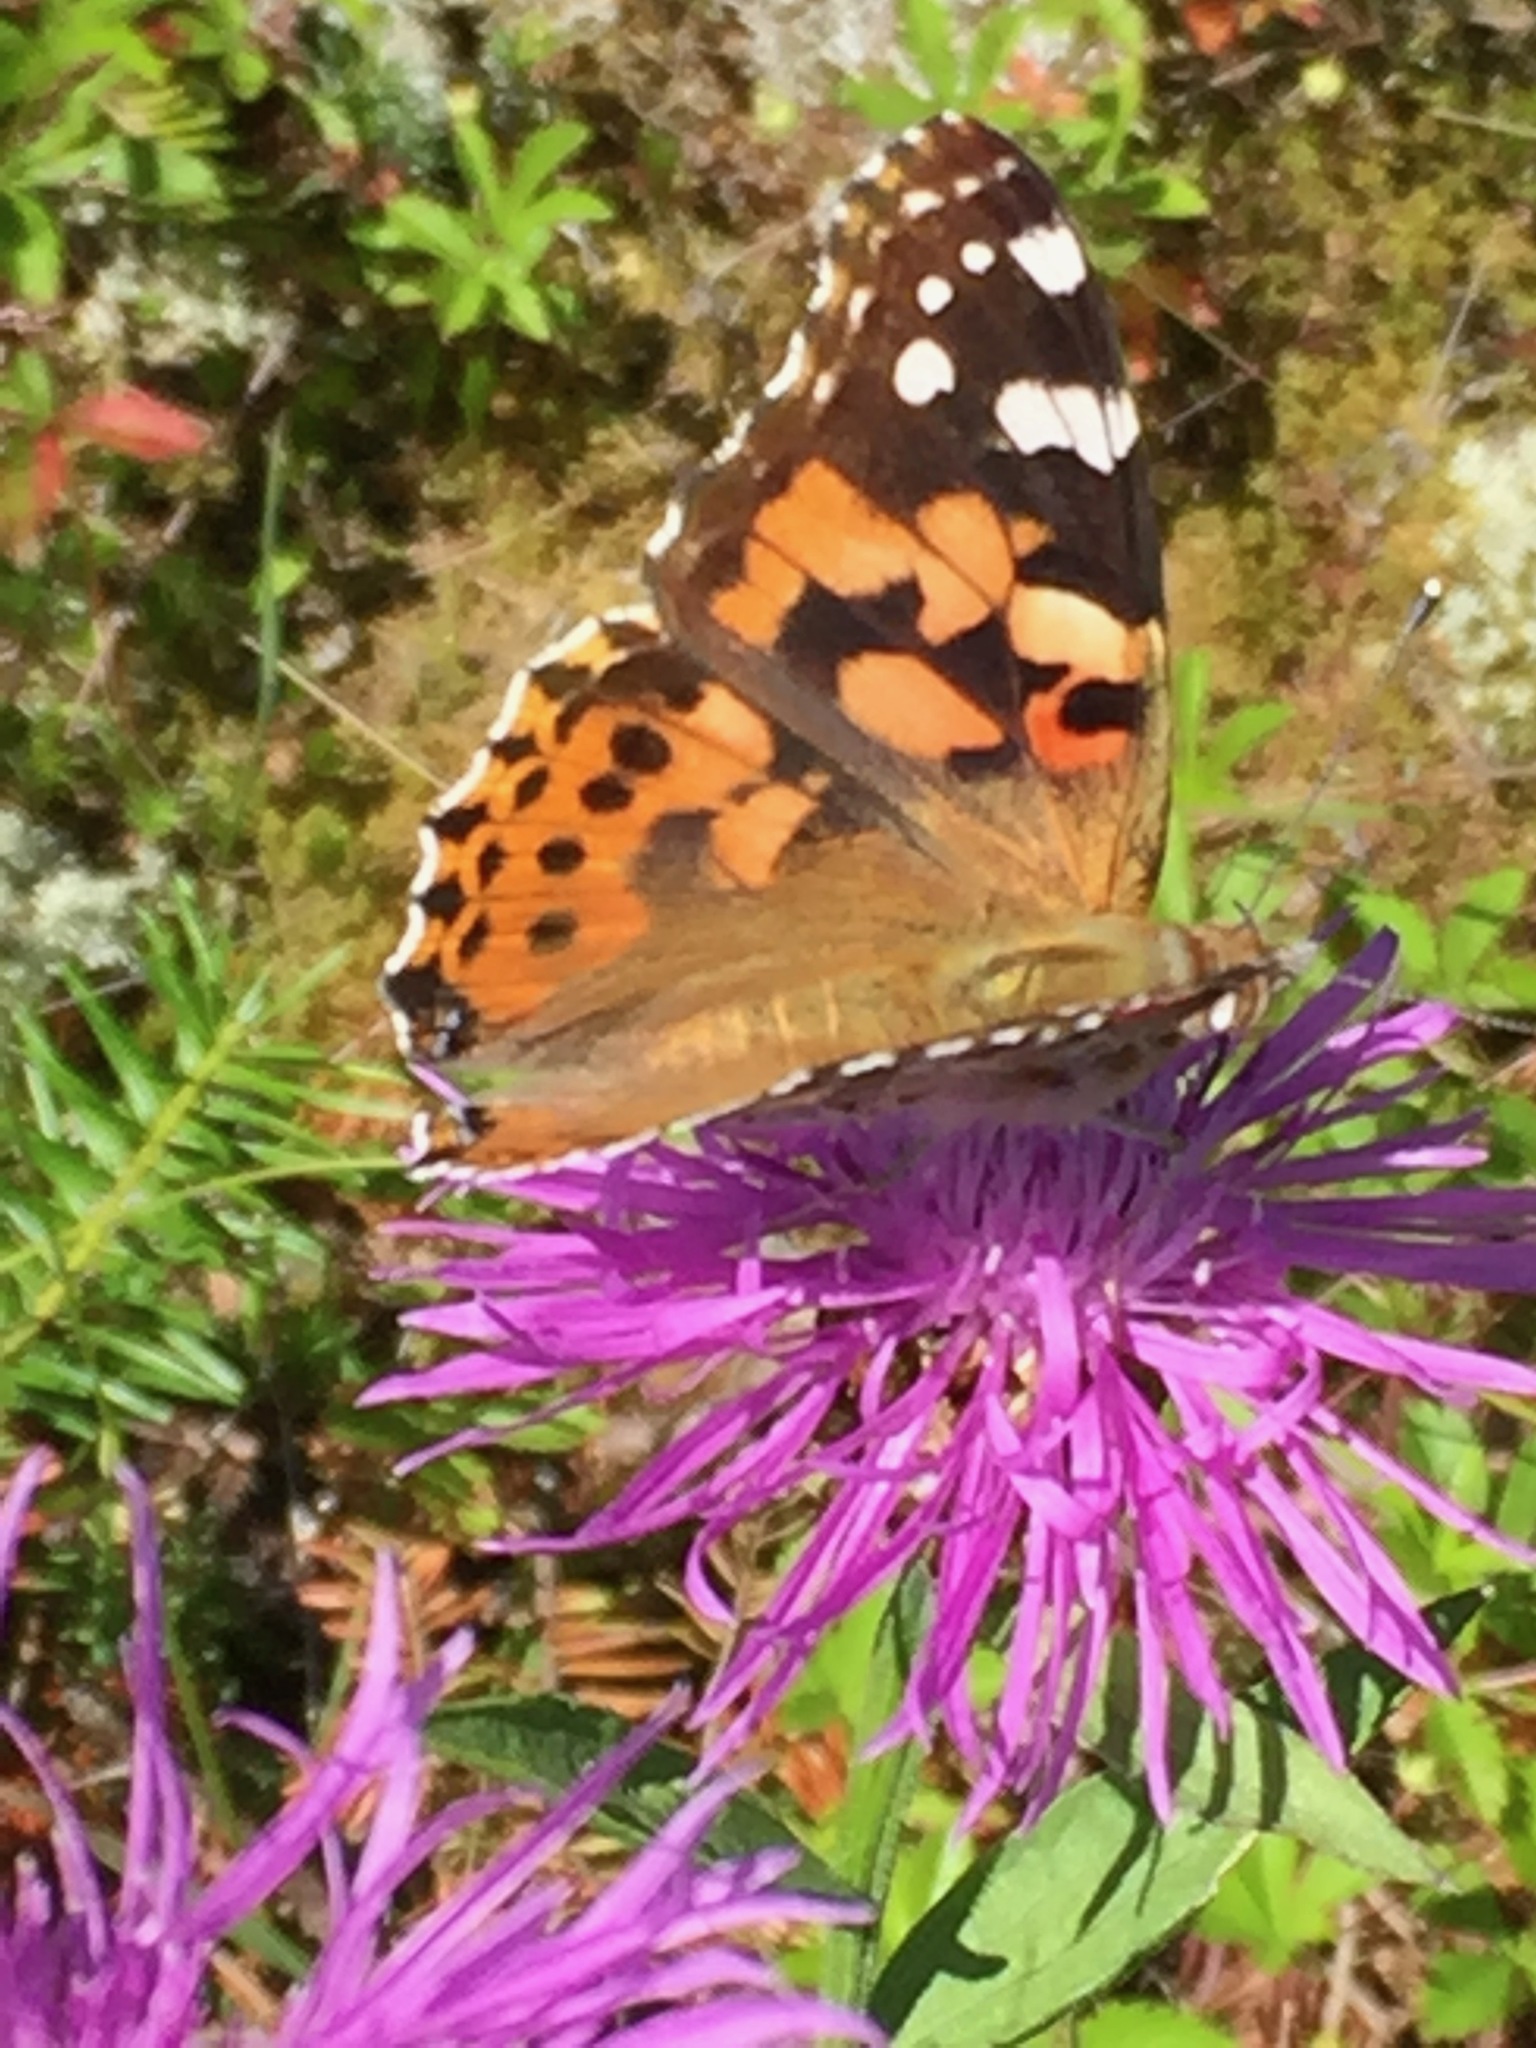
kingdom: Animalia
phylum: Arthropoda
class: Insecta
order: Lepidoptera
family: Nymphalidae
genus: Vanessa
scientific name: Vanessa cardui
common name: Painted lady
